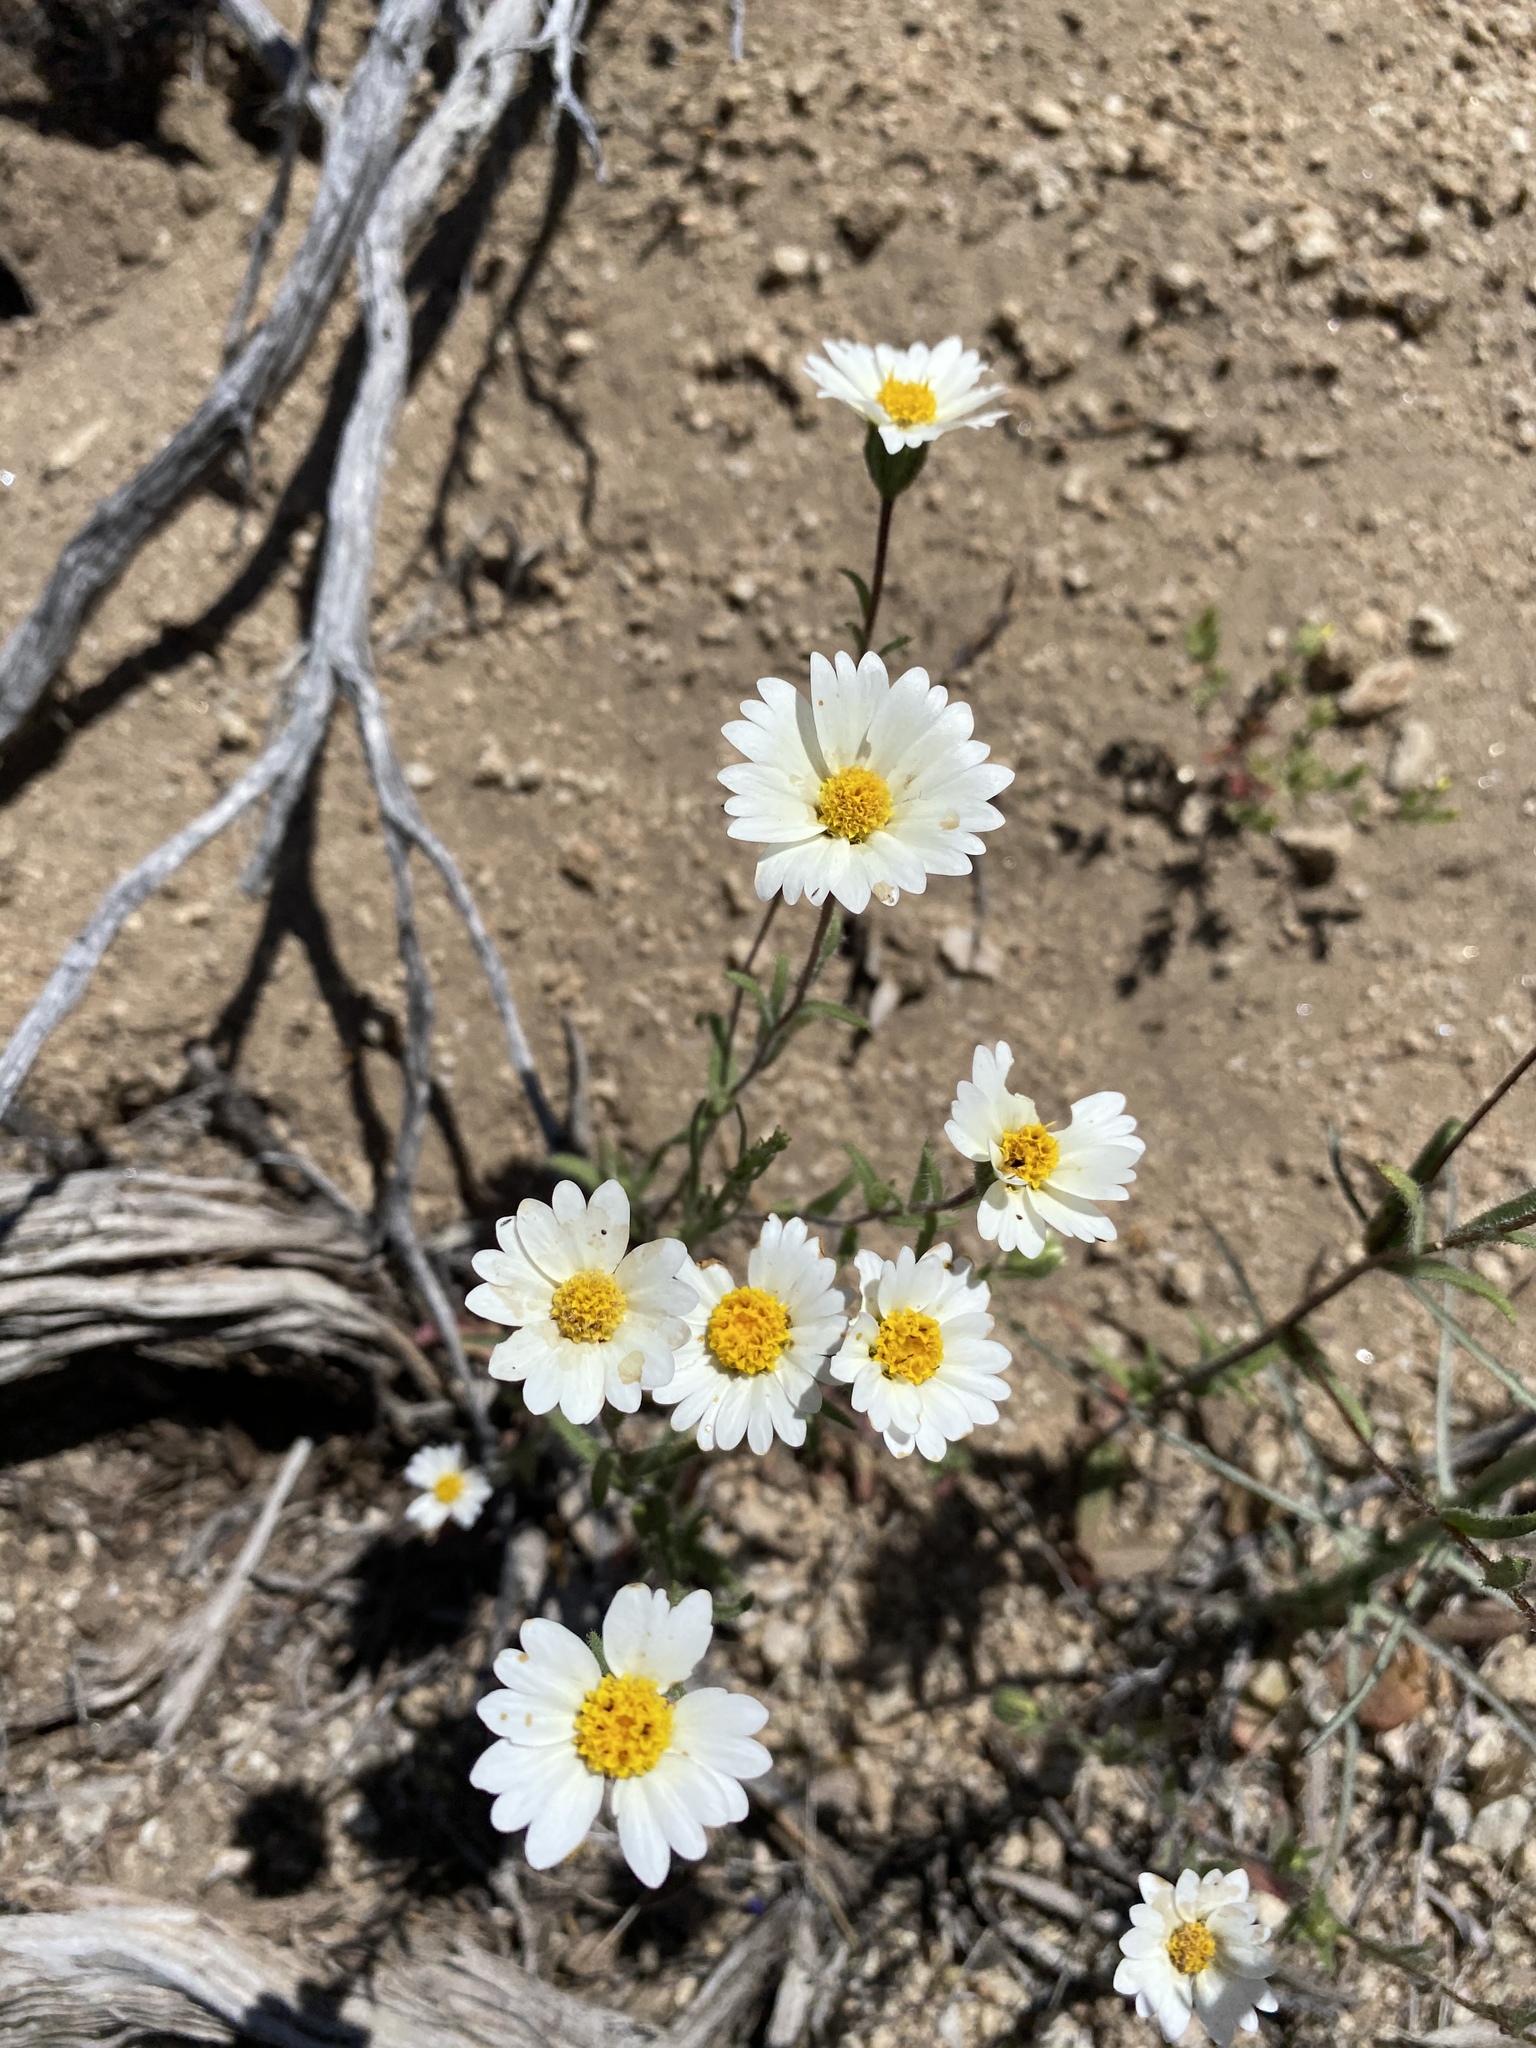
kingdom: Plantae
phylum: Tracheophyta
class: Magnoliopsida
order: Asterales
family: Asteraceae
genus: Layia
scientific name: Layia glandulosa
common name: White layia
